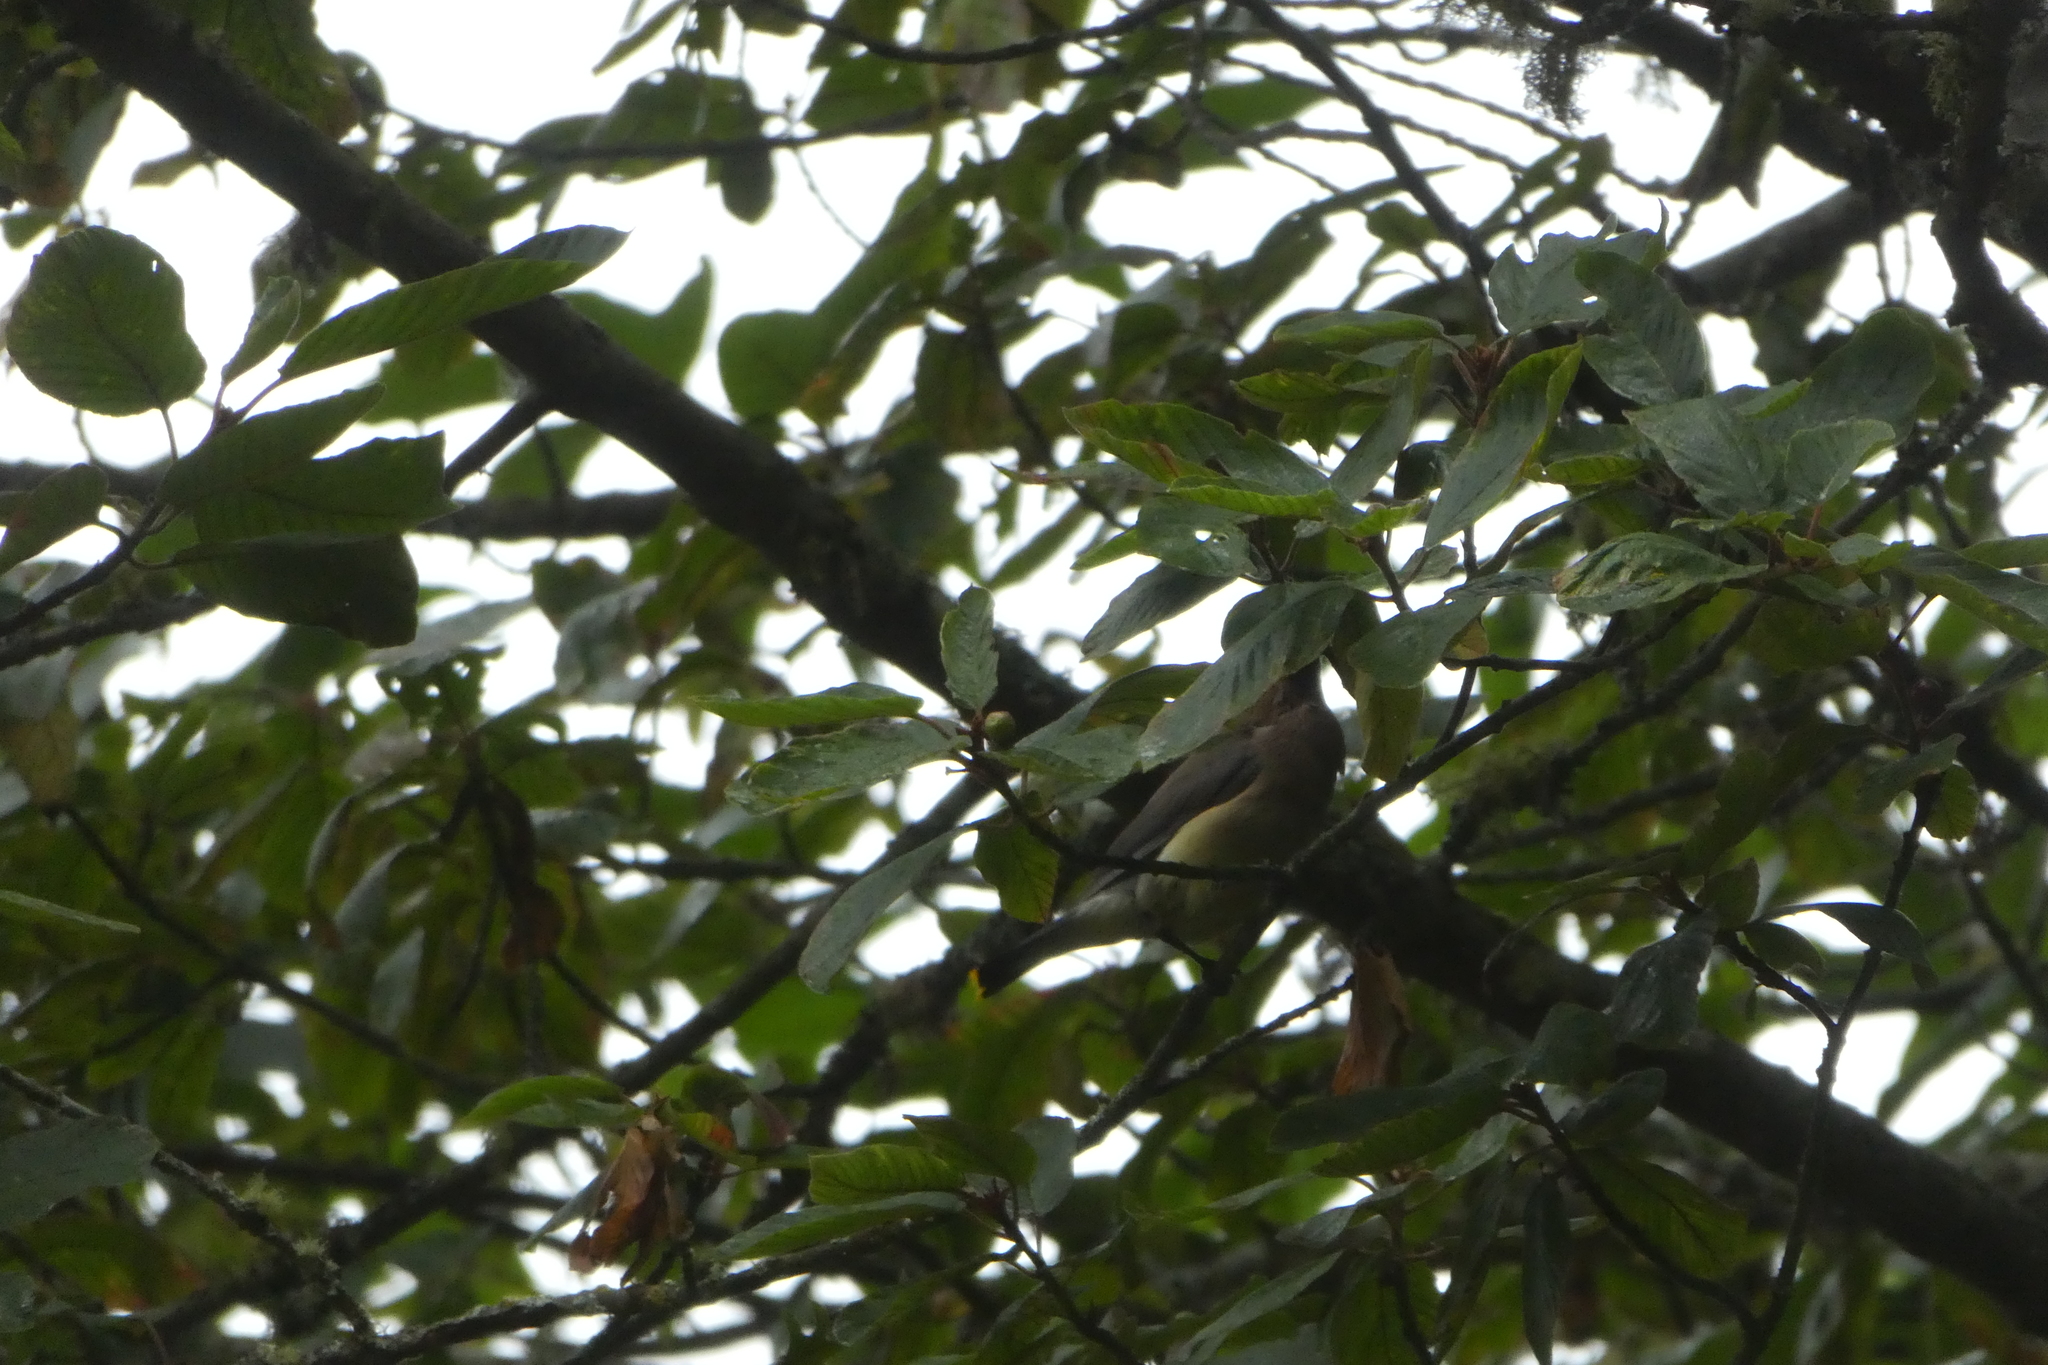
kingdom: Animalia
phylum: Chordata
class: Aves
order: Passeriformes
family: Bombycillidae
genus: Bombycilla
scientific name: Bombycilla cedrorum
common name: Cedar waxwing
